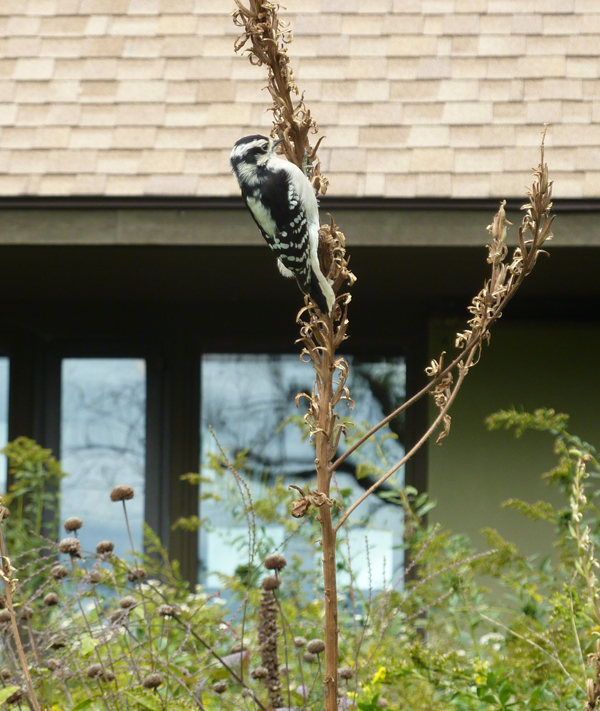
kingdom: Animalia
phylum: Chordata
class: Aves
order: Piciformes
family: Picidae
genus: Dryobates
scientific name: Dryobates pubescens
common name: Downy woodpecker
